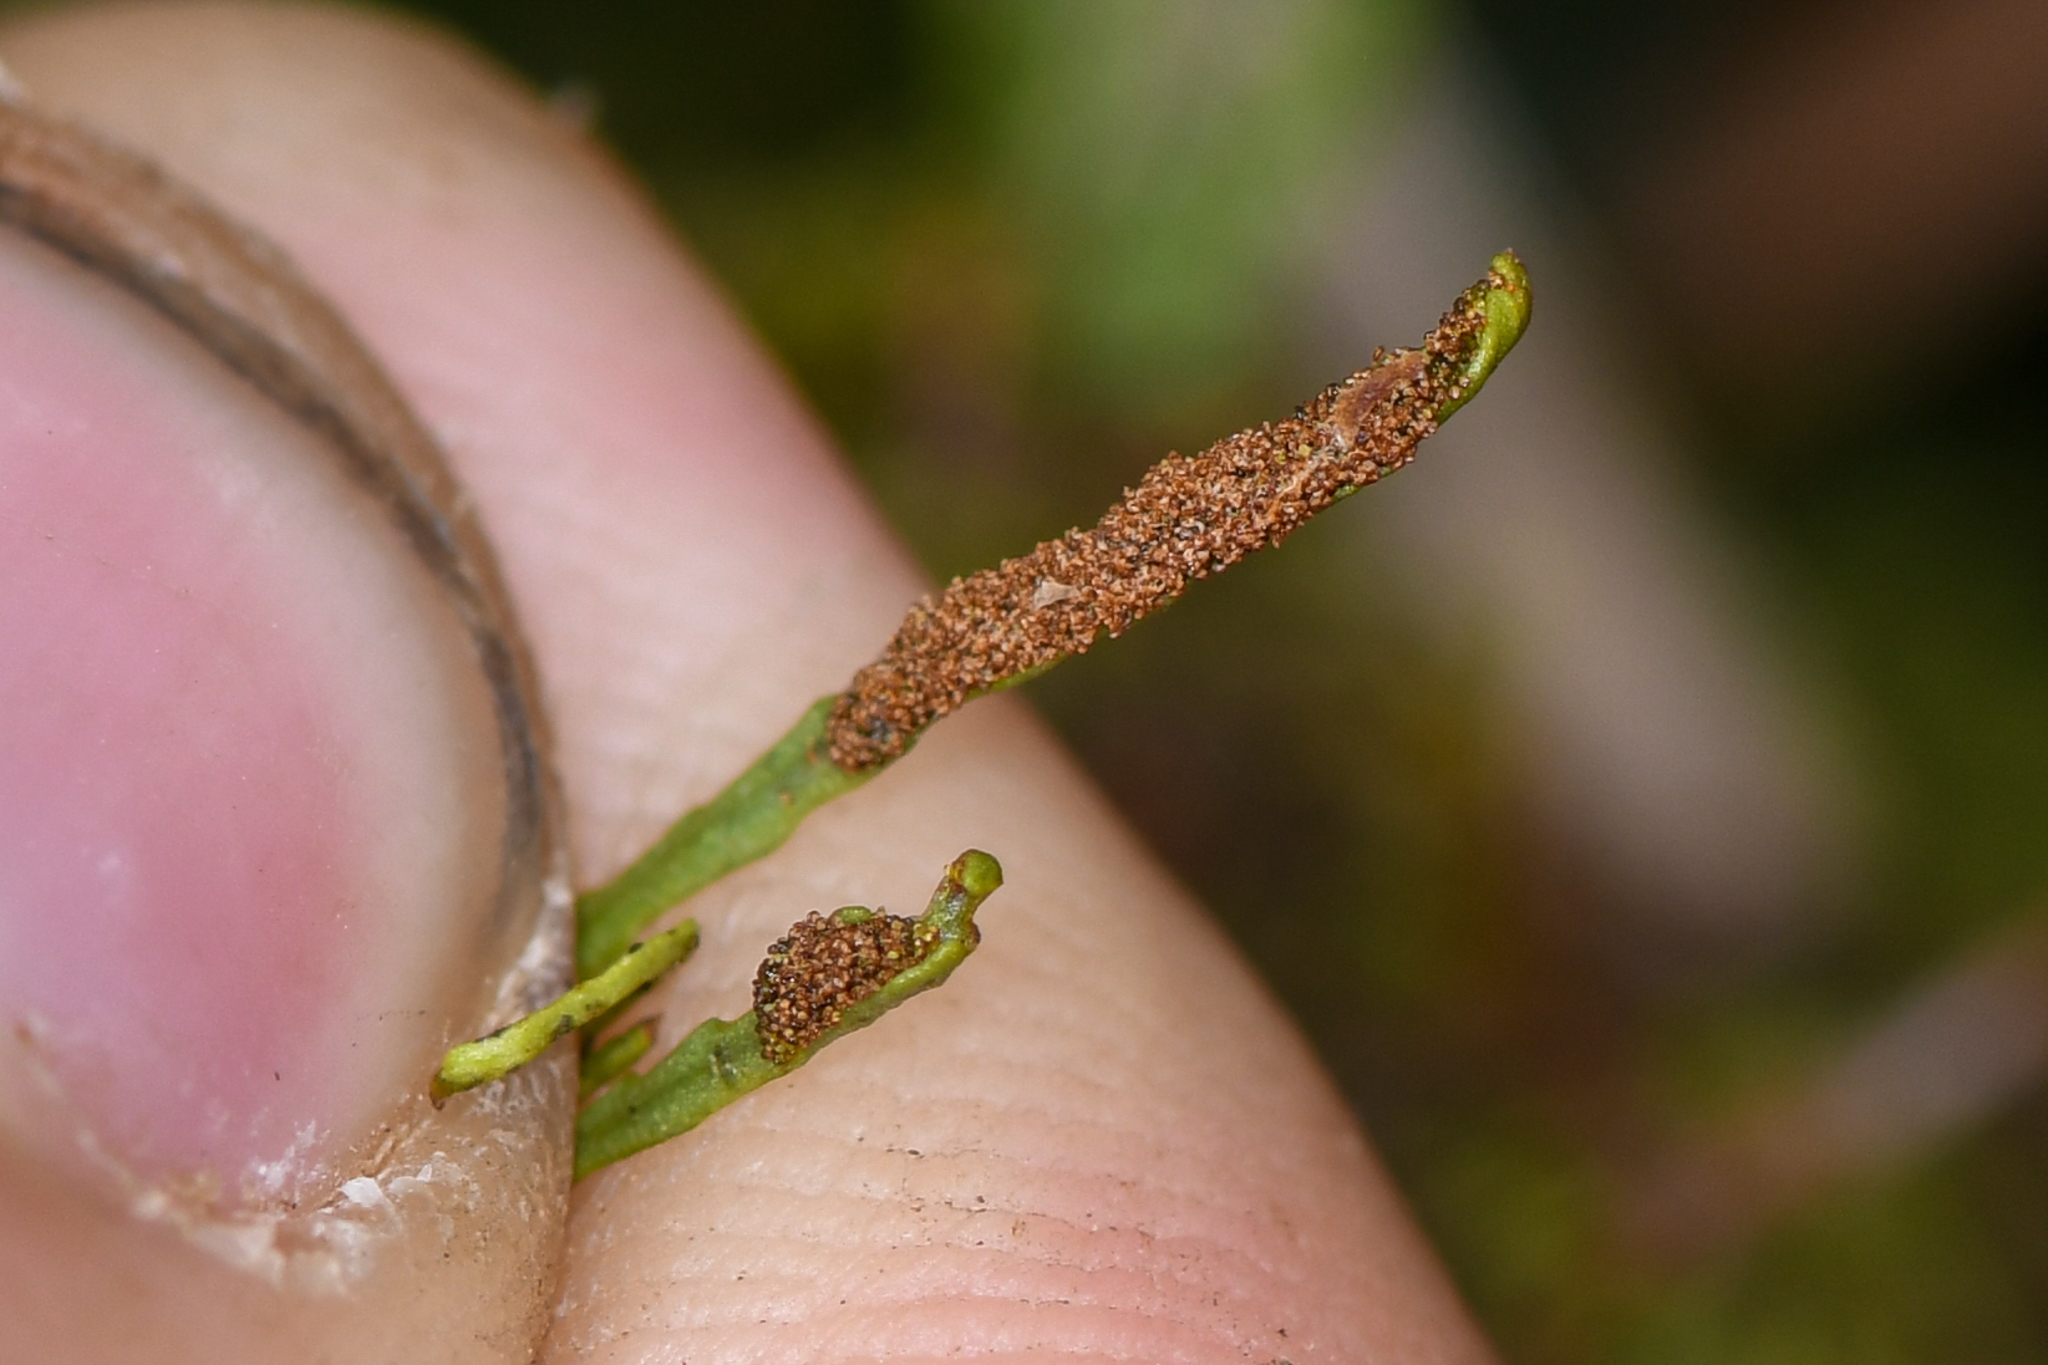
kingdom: Plantae
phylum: Tracheophyta
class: Polypodiopsida
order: Polypodiales
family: Polypodiaceae
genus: Cochlidium
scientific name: Cochlidium serrulatum
